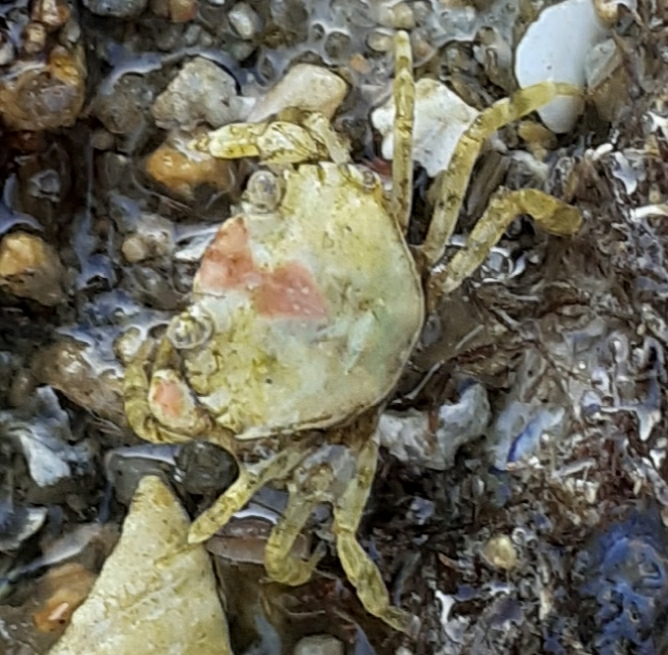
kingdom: Animalia
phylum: Arthropoda
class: Malacostraca
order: Decapoda
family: Carcinidae
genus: Carcinus
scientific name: Carcinus maenas
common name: European green crab
